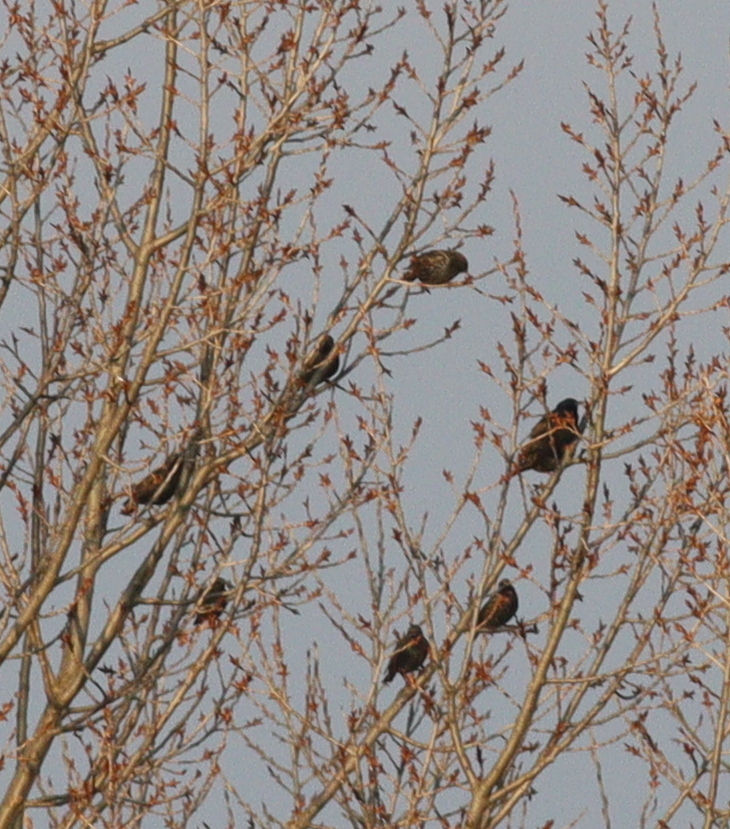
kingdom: Animalia
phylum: Chordata
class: Aves
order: Passeriformes
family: Sturnidae
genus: Sturnus
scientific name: Sturnus vulgaris
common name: Common starling
